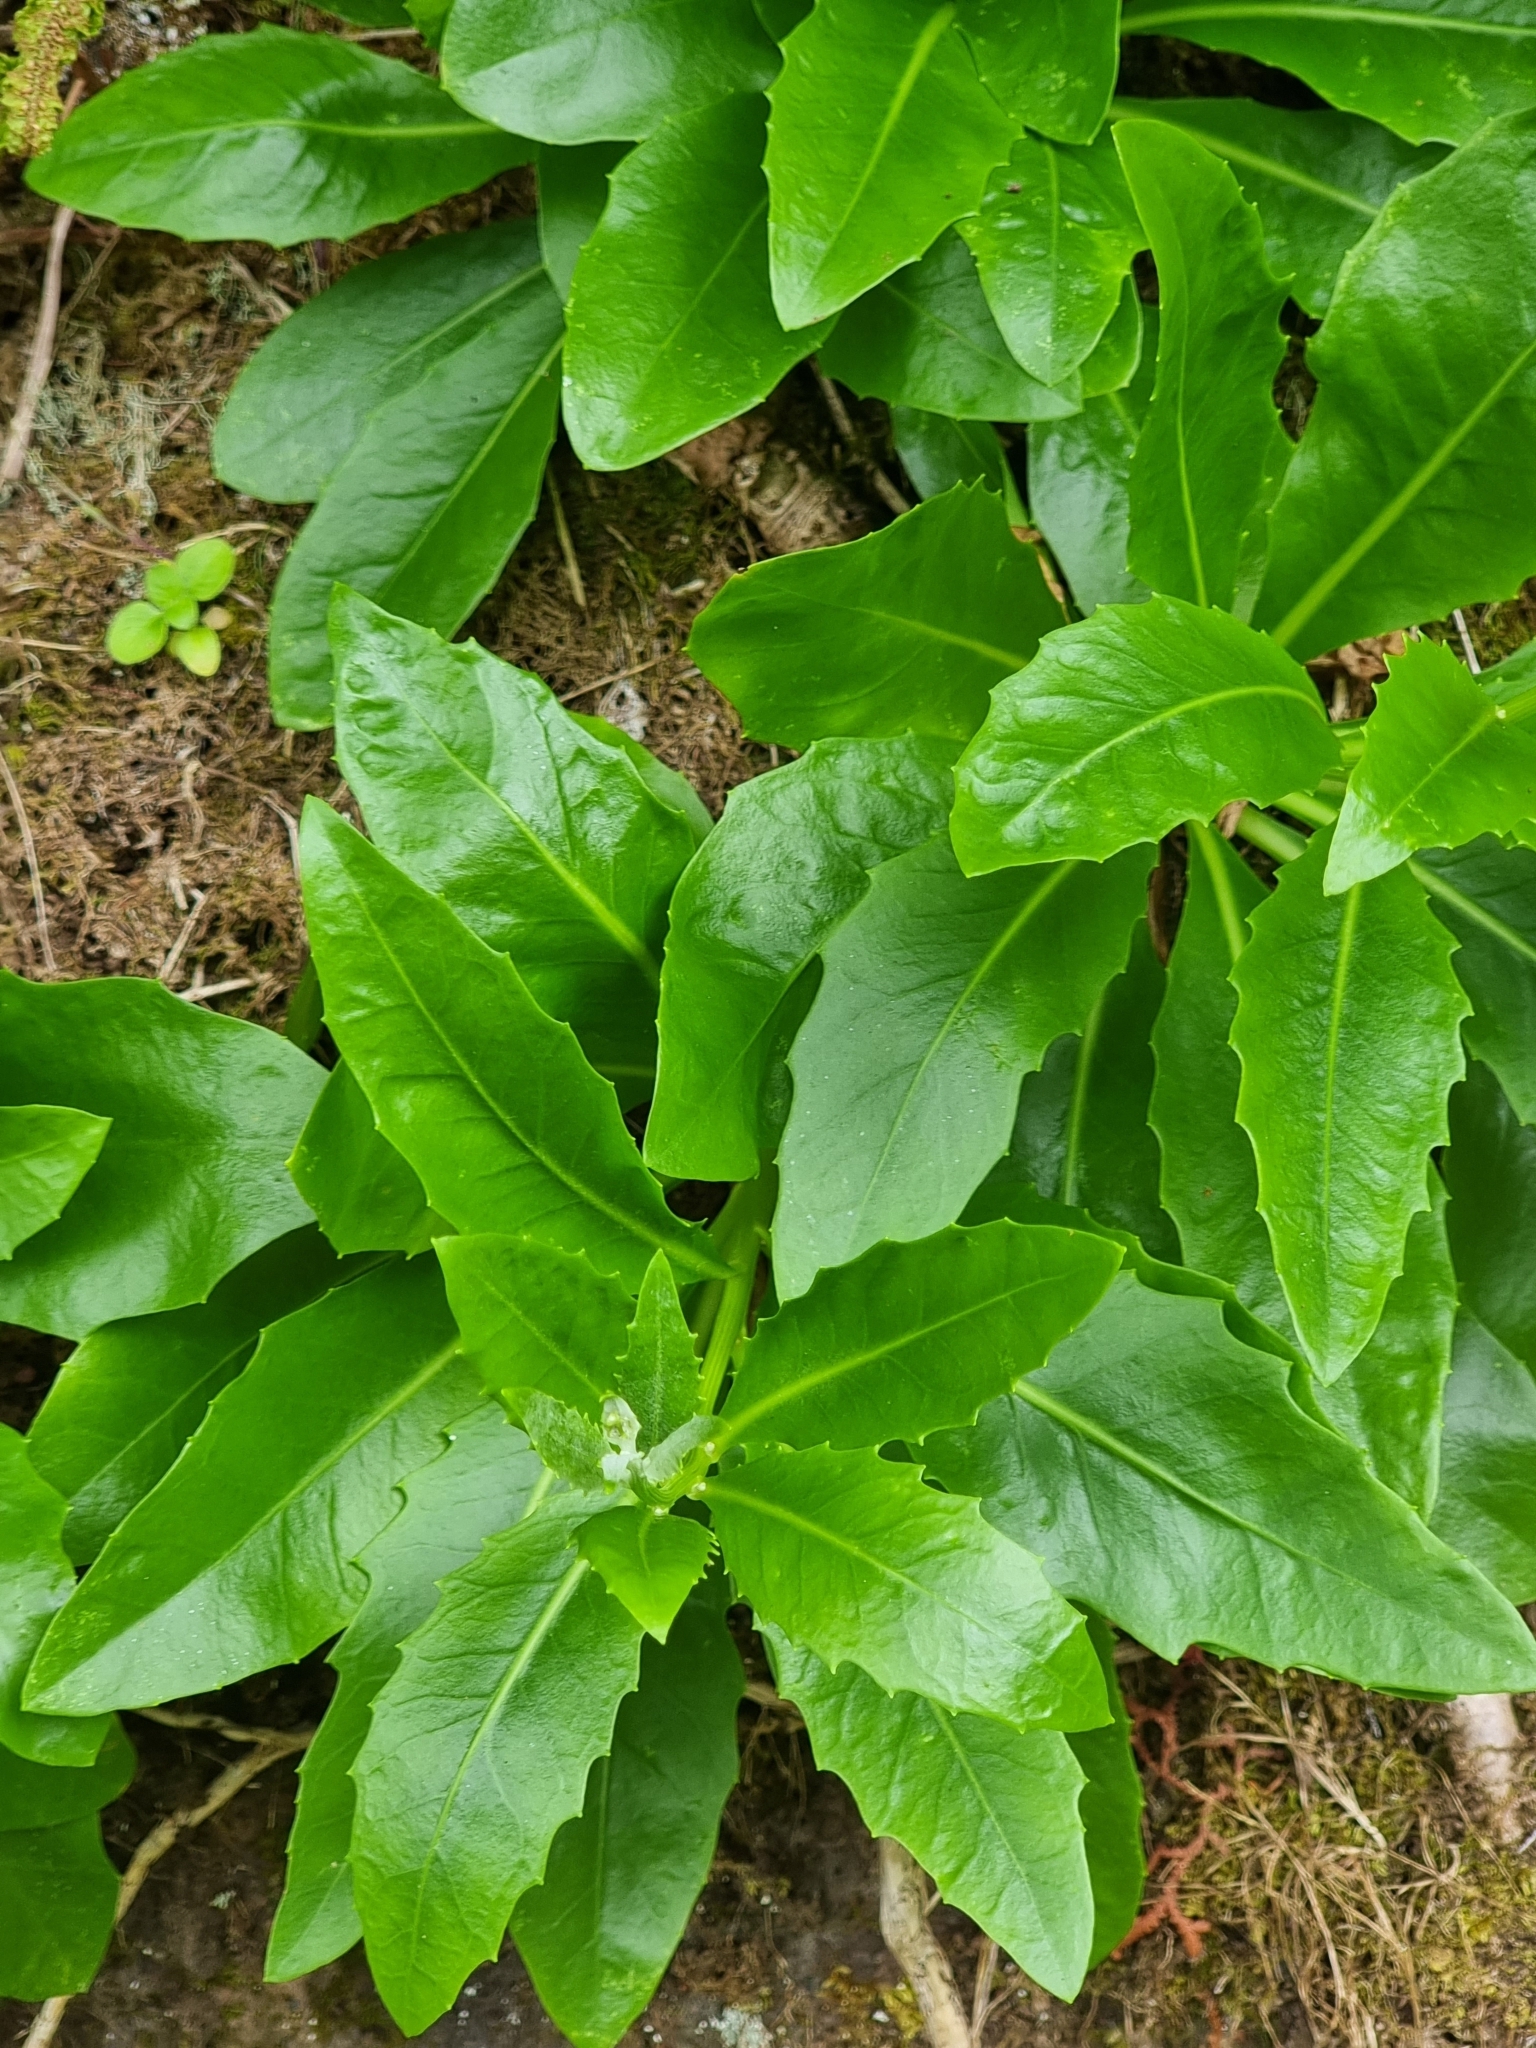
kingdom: Plantae
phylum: Tracheophyta
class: Magnoliopsida
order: Asterales
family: Asteraceae
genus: Tolpis
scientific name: Tolpis macrorhiza
